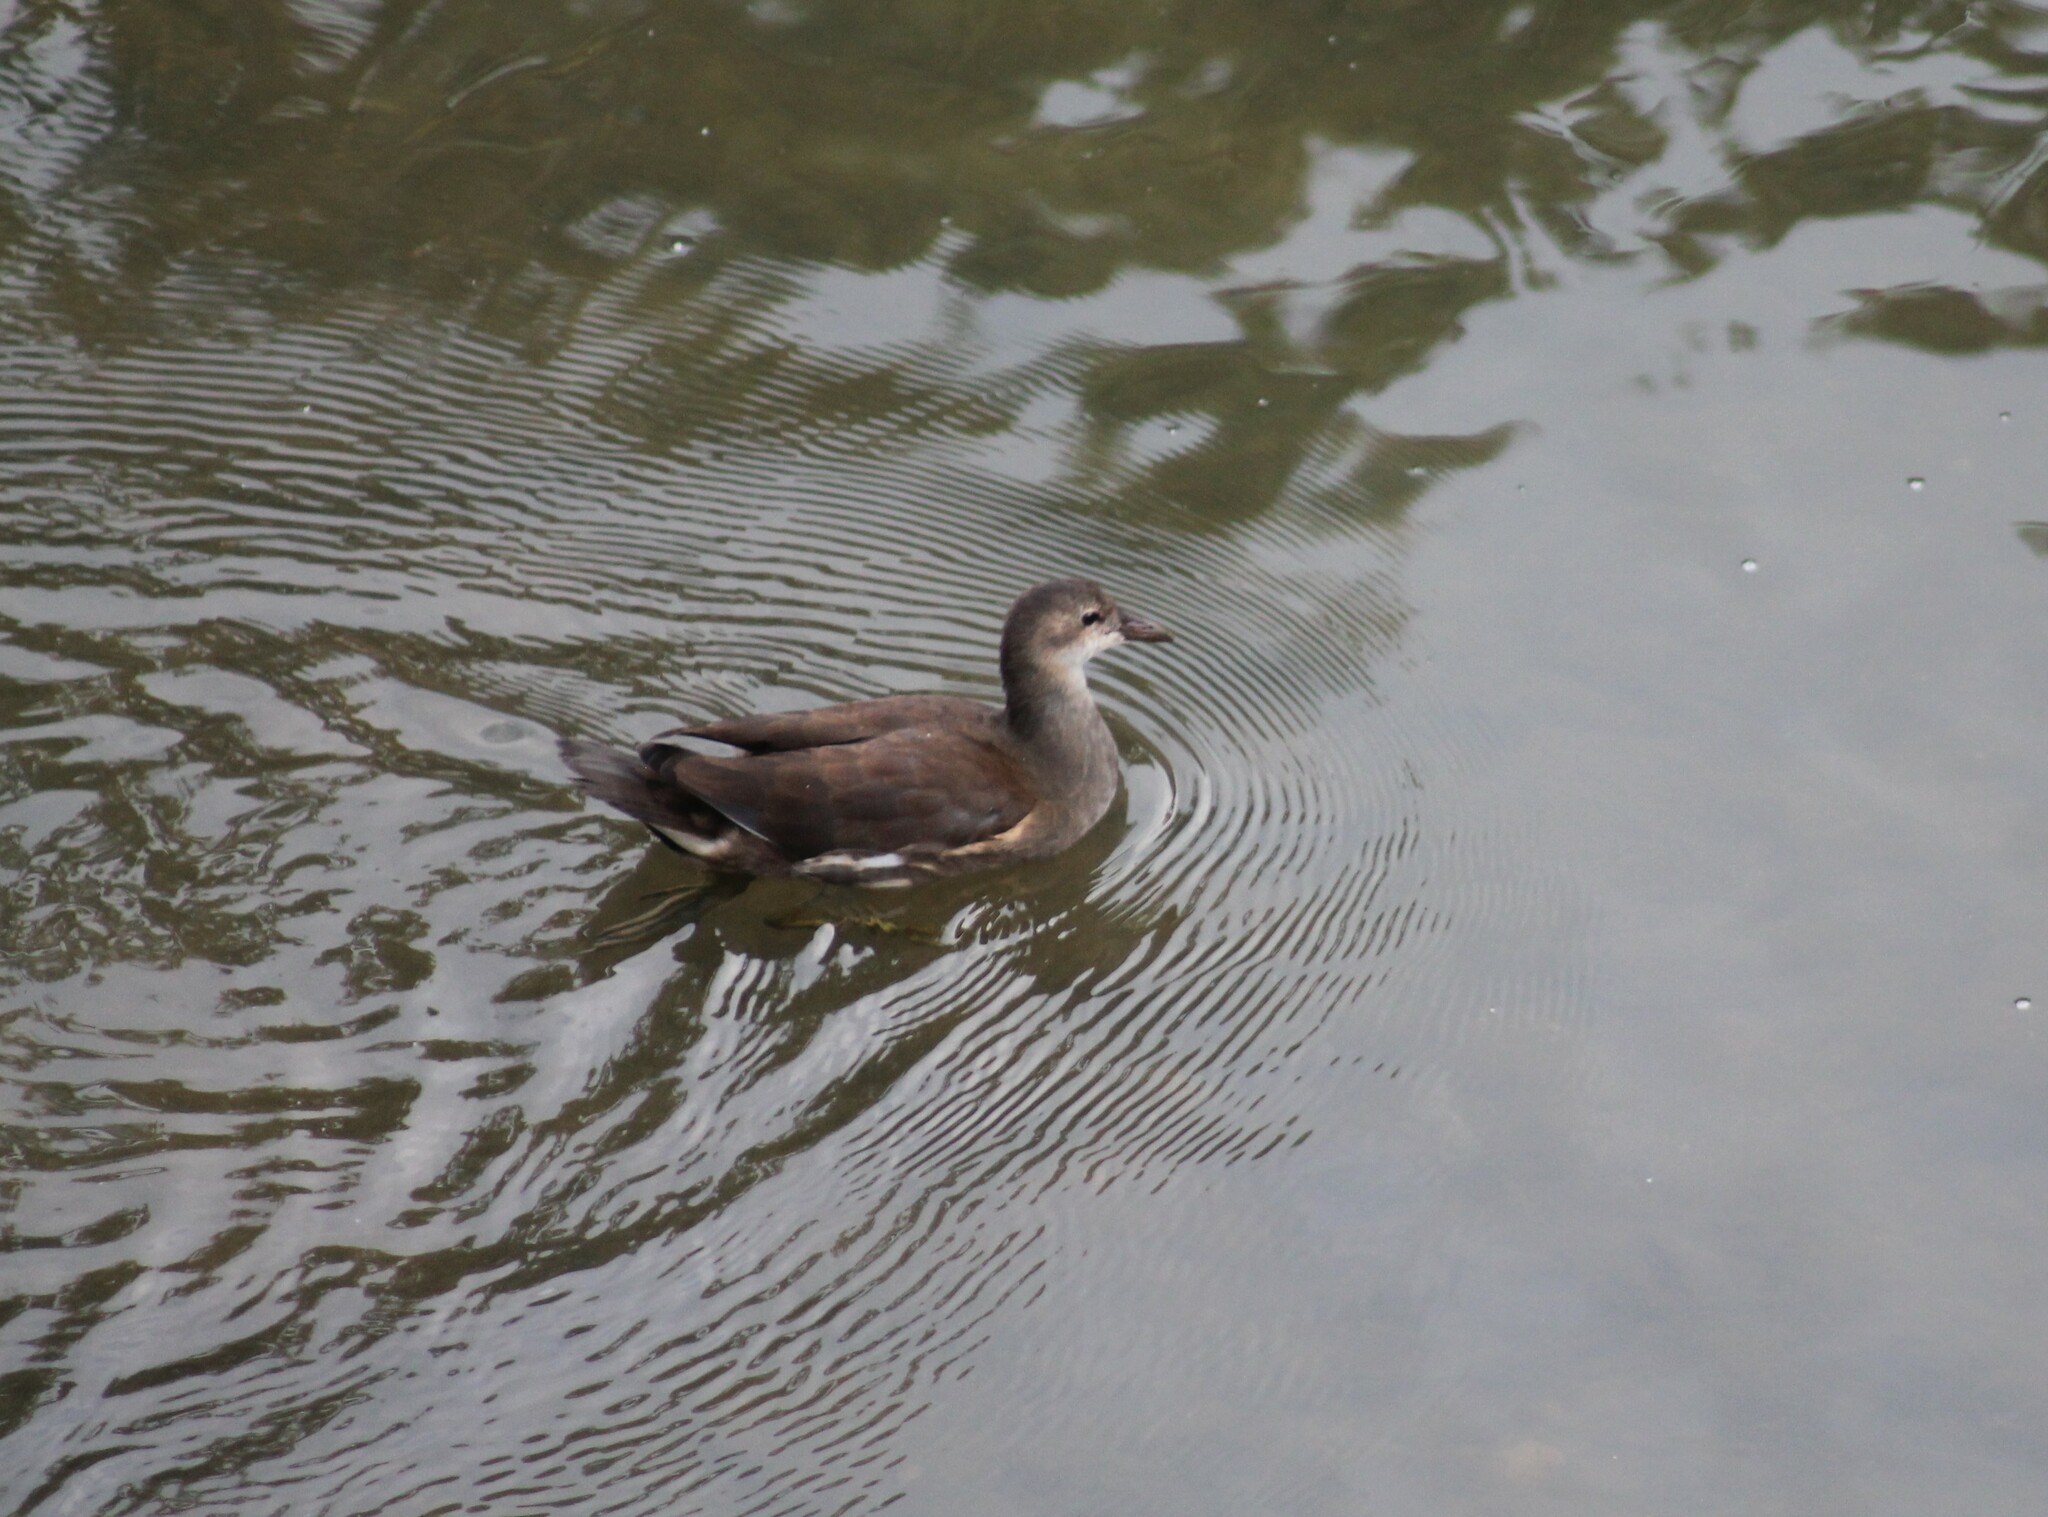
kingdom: Animalia
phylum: Chordata
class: Aves
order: Gruiformes
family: Rallidae
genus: Gallinula
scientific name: Gallinula chloropus
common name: Common moorhen
